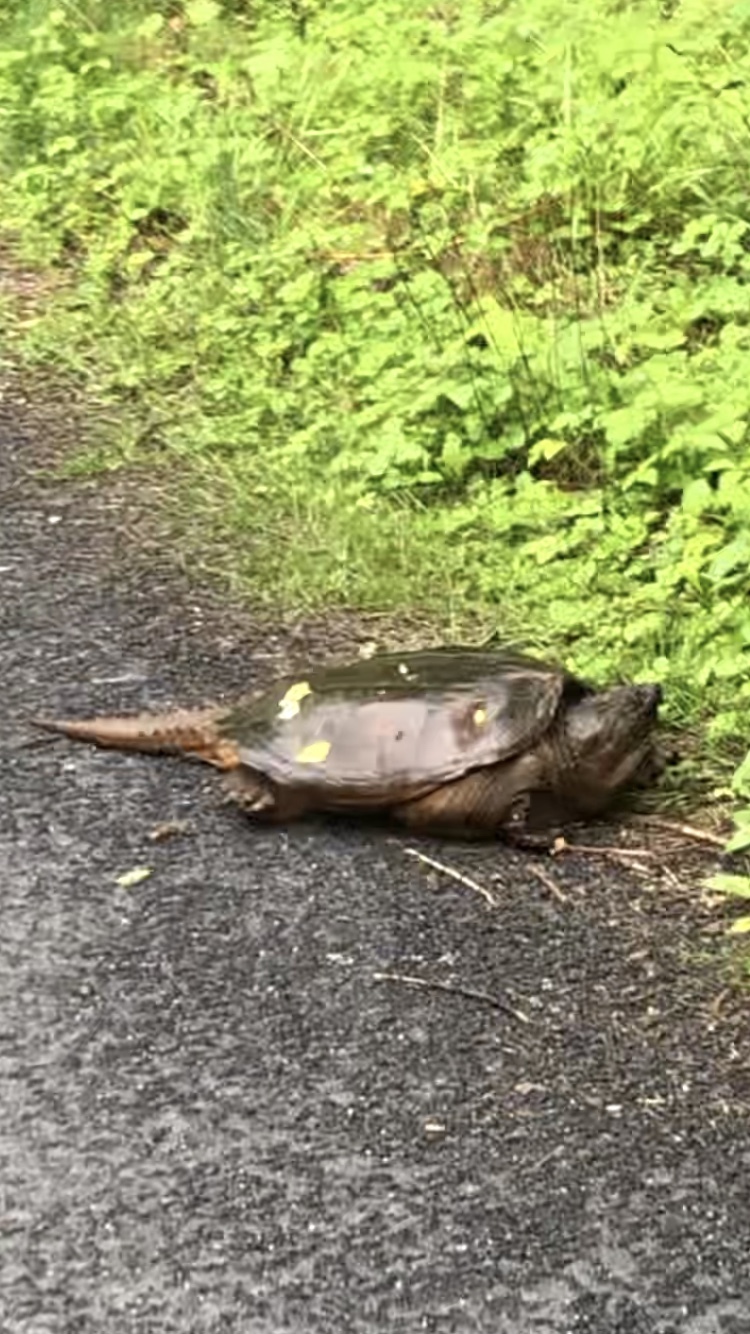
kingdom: Animalia
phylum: Chordata
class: Testudines
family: Chelydridae
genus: Chelydra
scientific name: Chelydra serpentina
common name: Common snapping turtle
